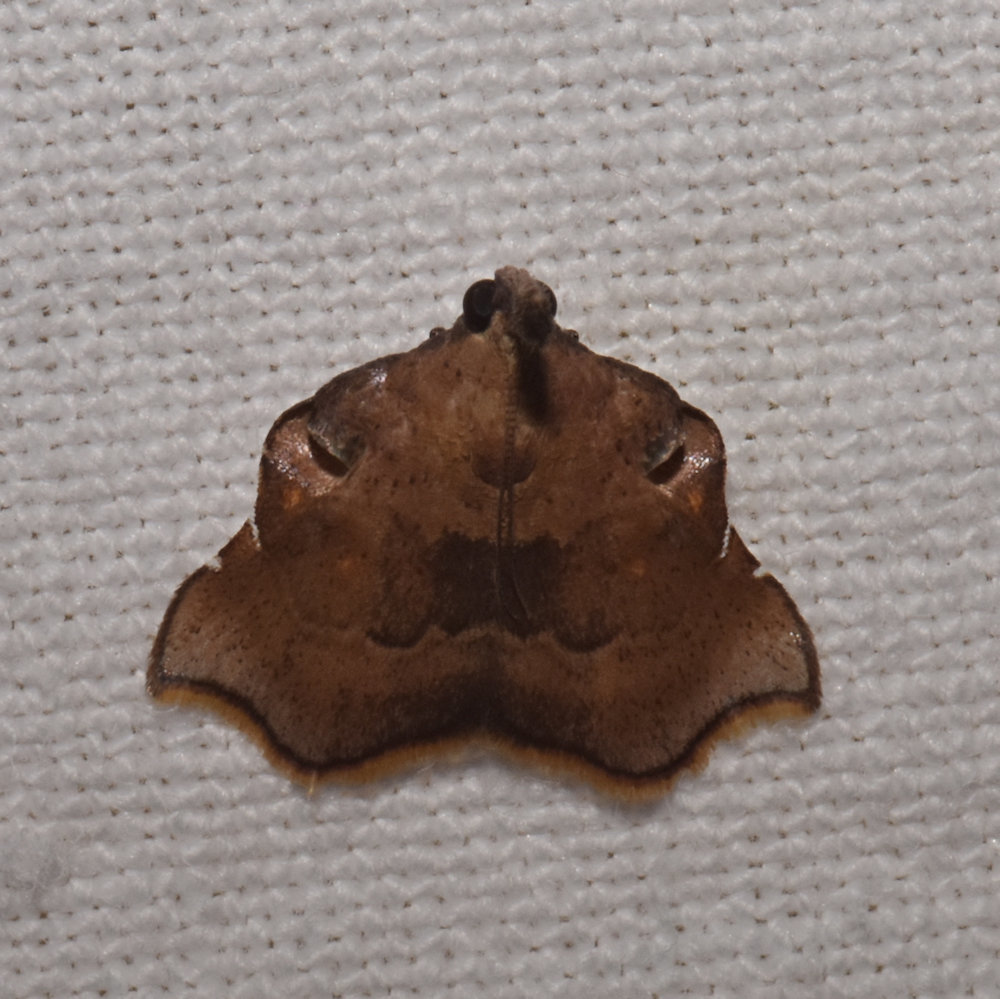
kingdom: Animalia
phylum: Arthropoda
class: Insecta
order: Lepidoptera
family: Pyralidae
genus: Salobrena
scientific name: Salobrena recurvata
